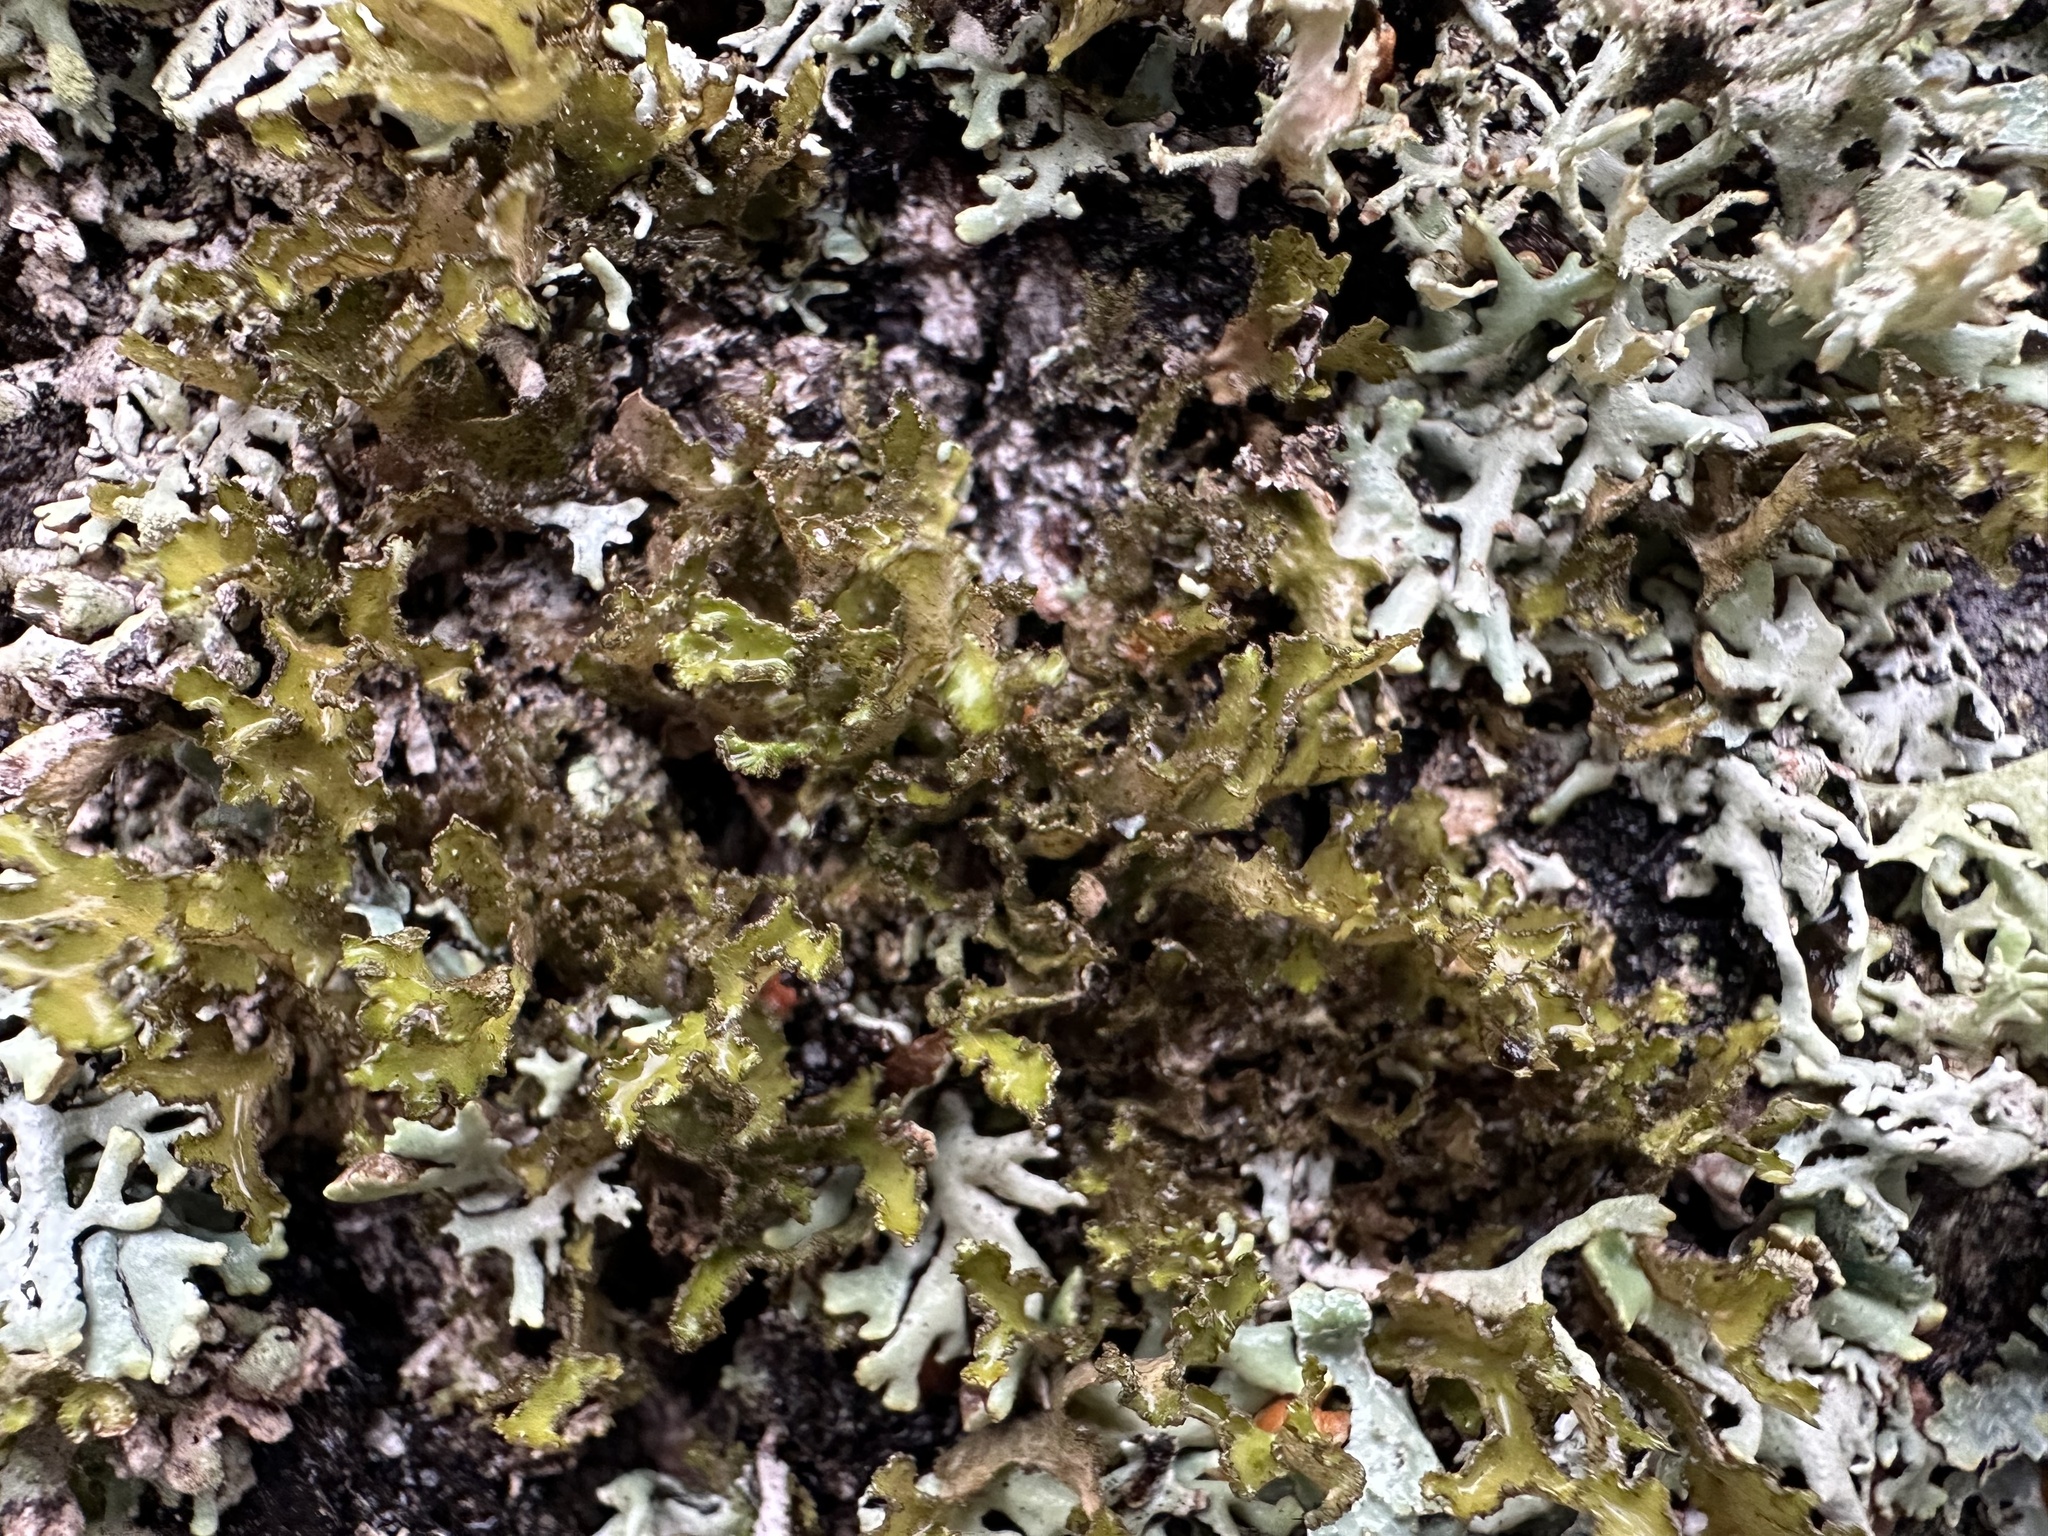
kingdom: Fungi
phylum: Ascomycota
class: Lecanoromycetes
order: Lecanorales
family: Parmeliaceae
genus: Nephromopsis
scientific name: Nephromopsis chlorophylla
